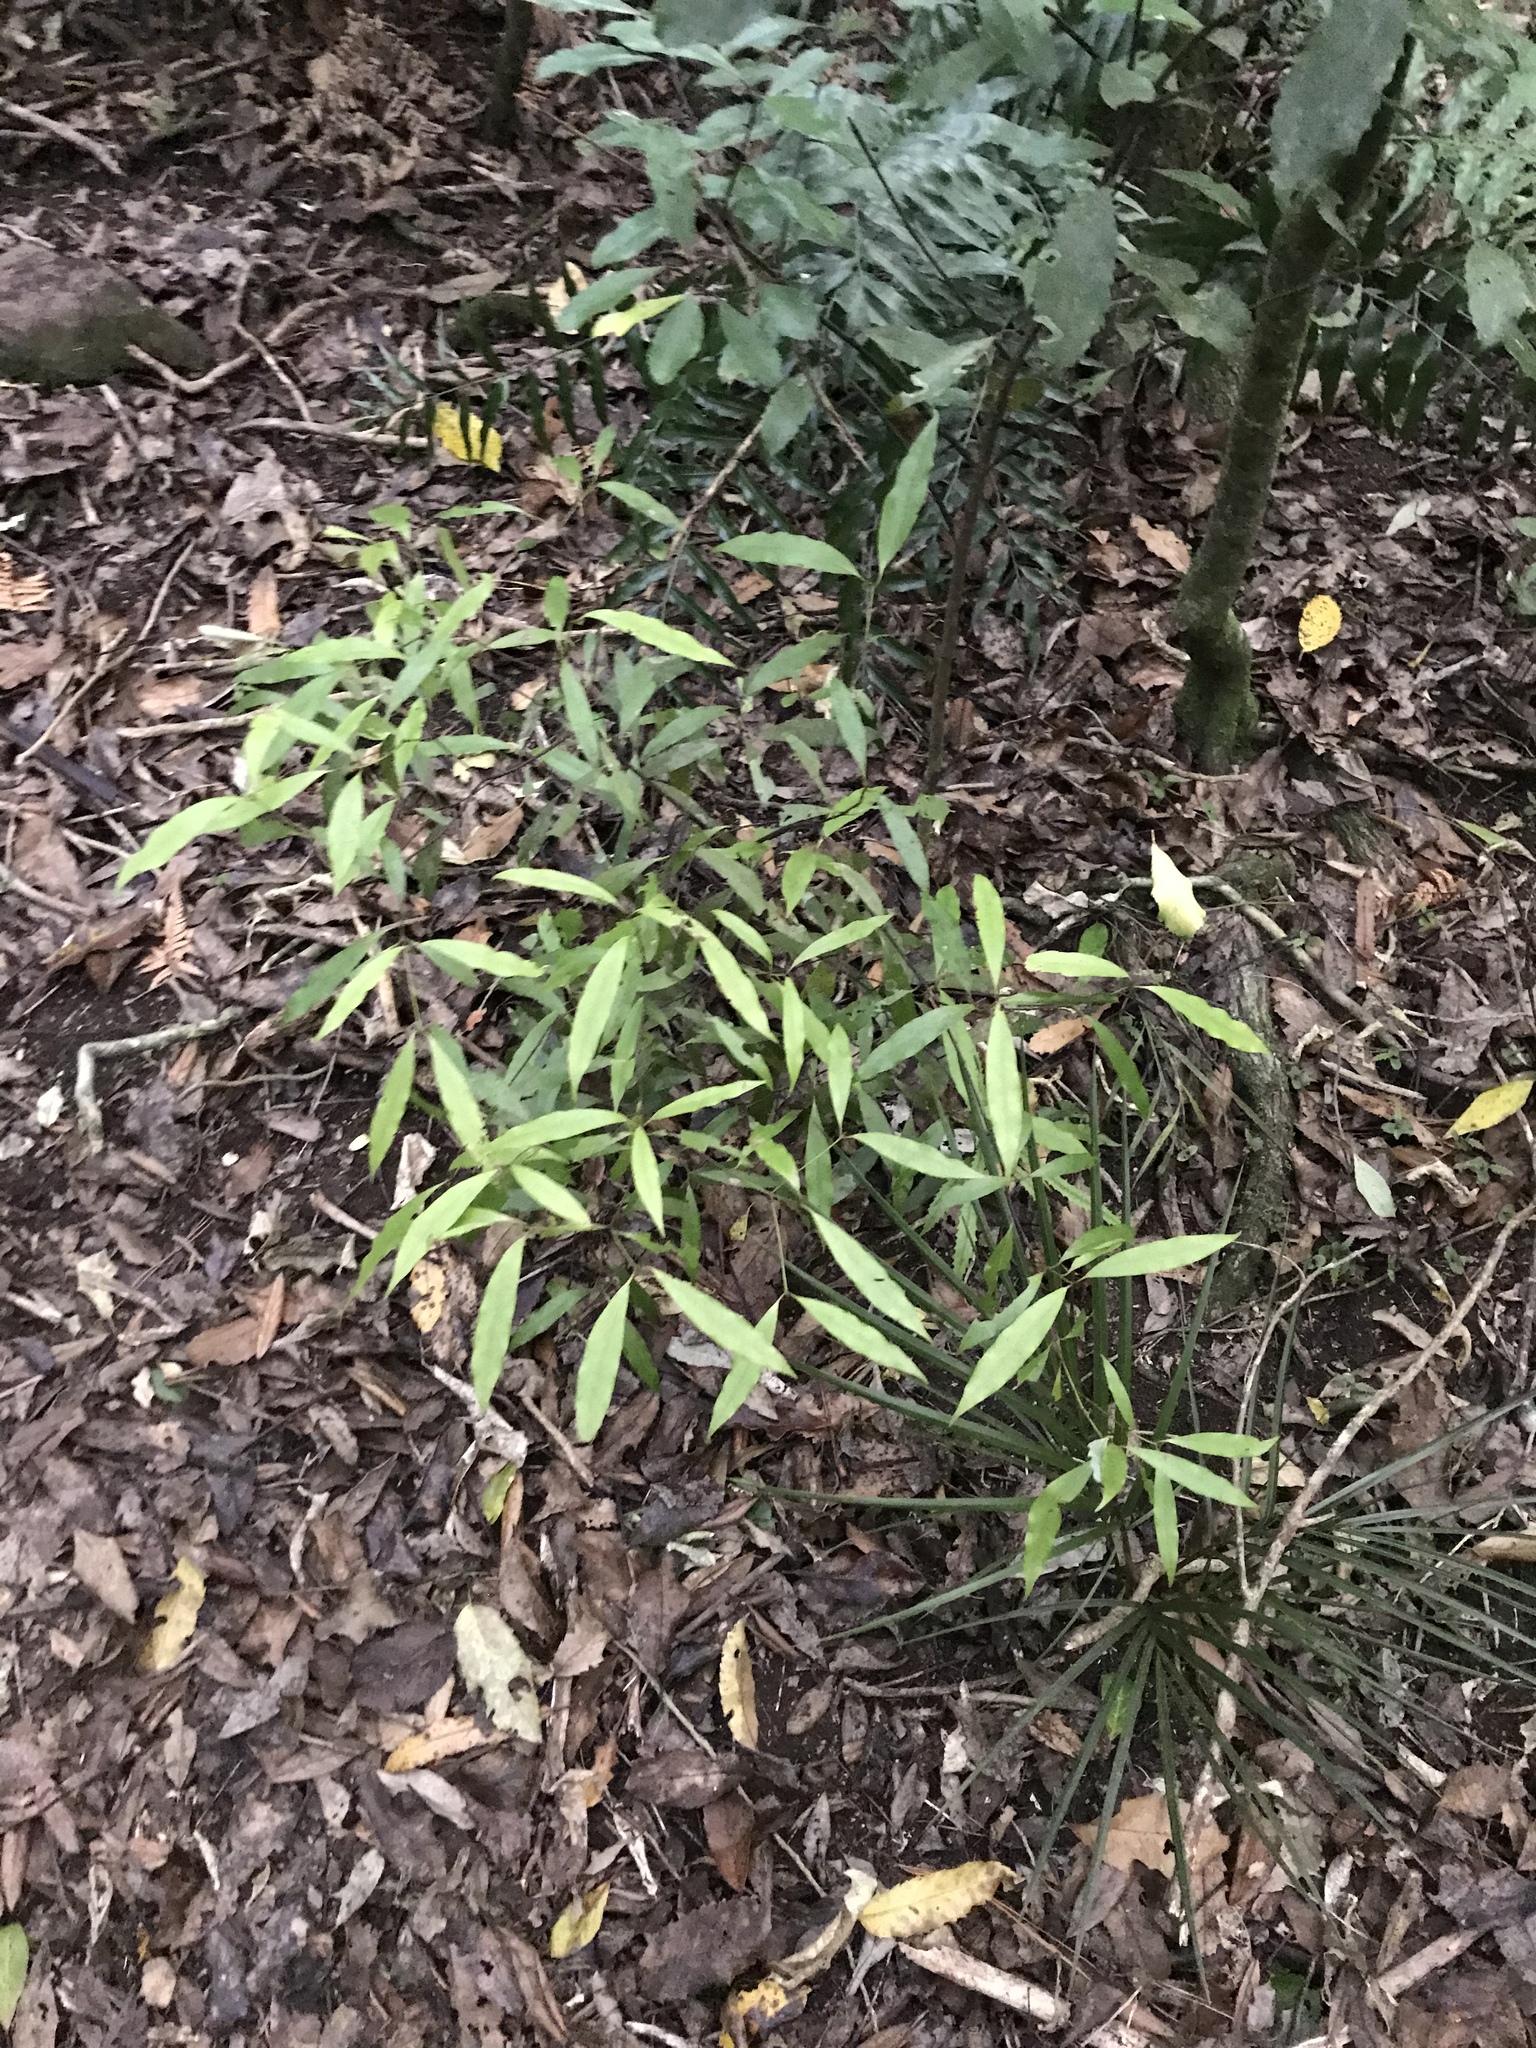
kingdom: Plantae
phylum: Tracheophyta
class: Magnoliopsida
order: Laurales
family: Lauraceae
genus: Beilschmiedia
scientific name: Beilschmiedia tawa
